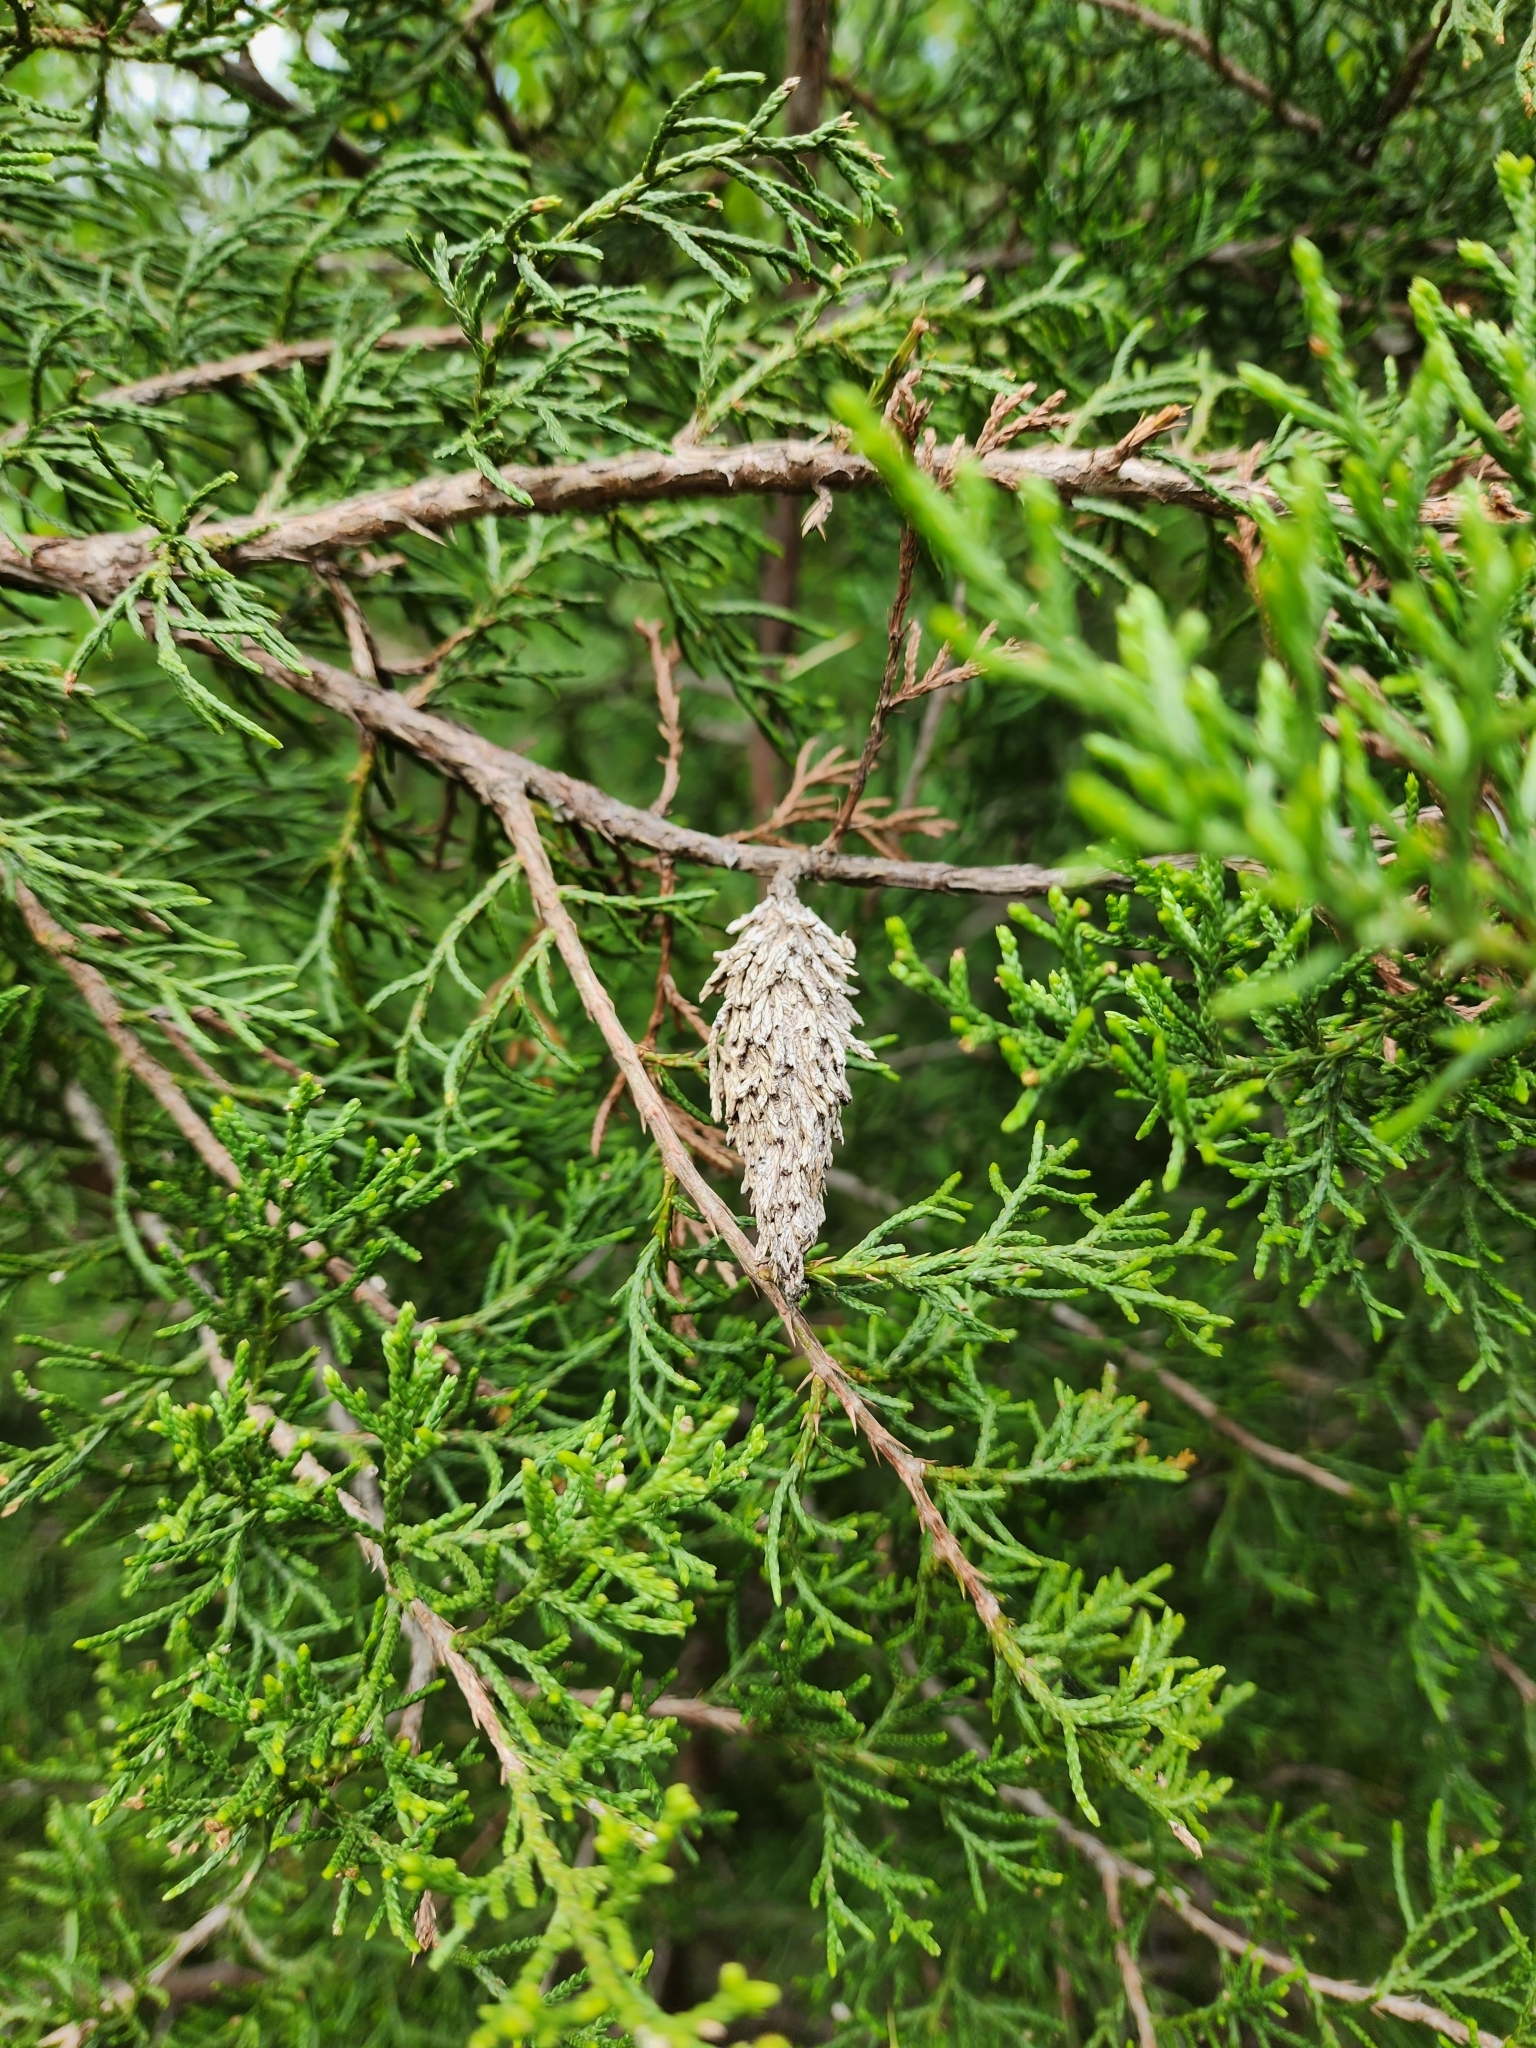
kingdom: Animalia
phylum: Arthropoda
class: Insecta
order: Lepidoptera
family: Psychidae
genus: Thyridopteryx
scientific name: Thyridopteryx ephemeraeformis
